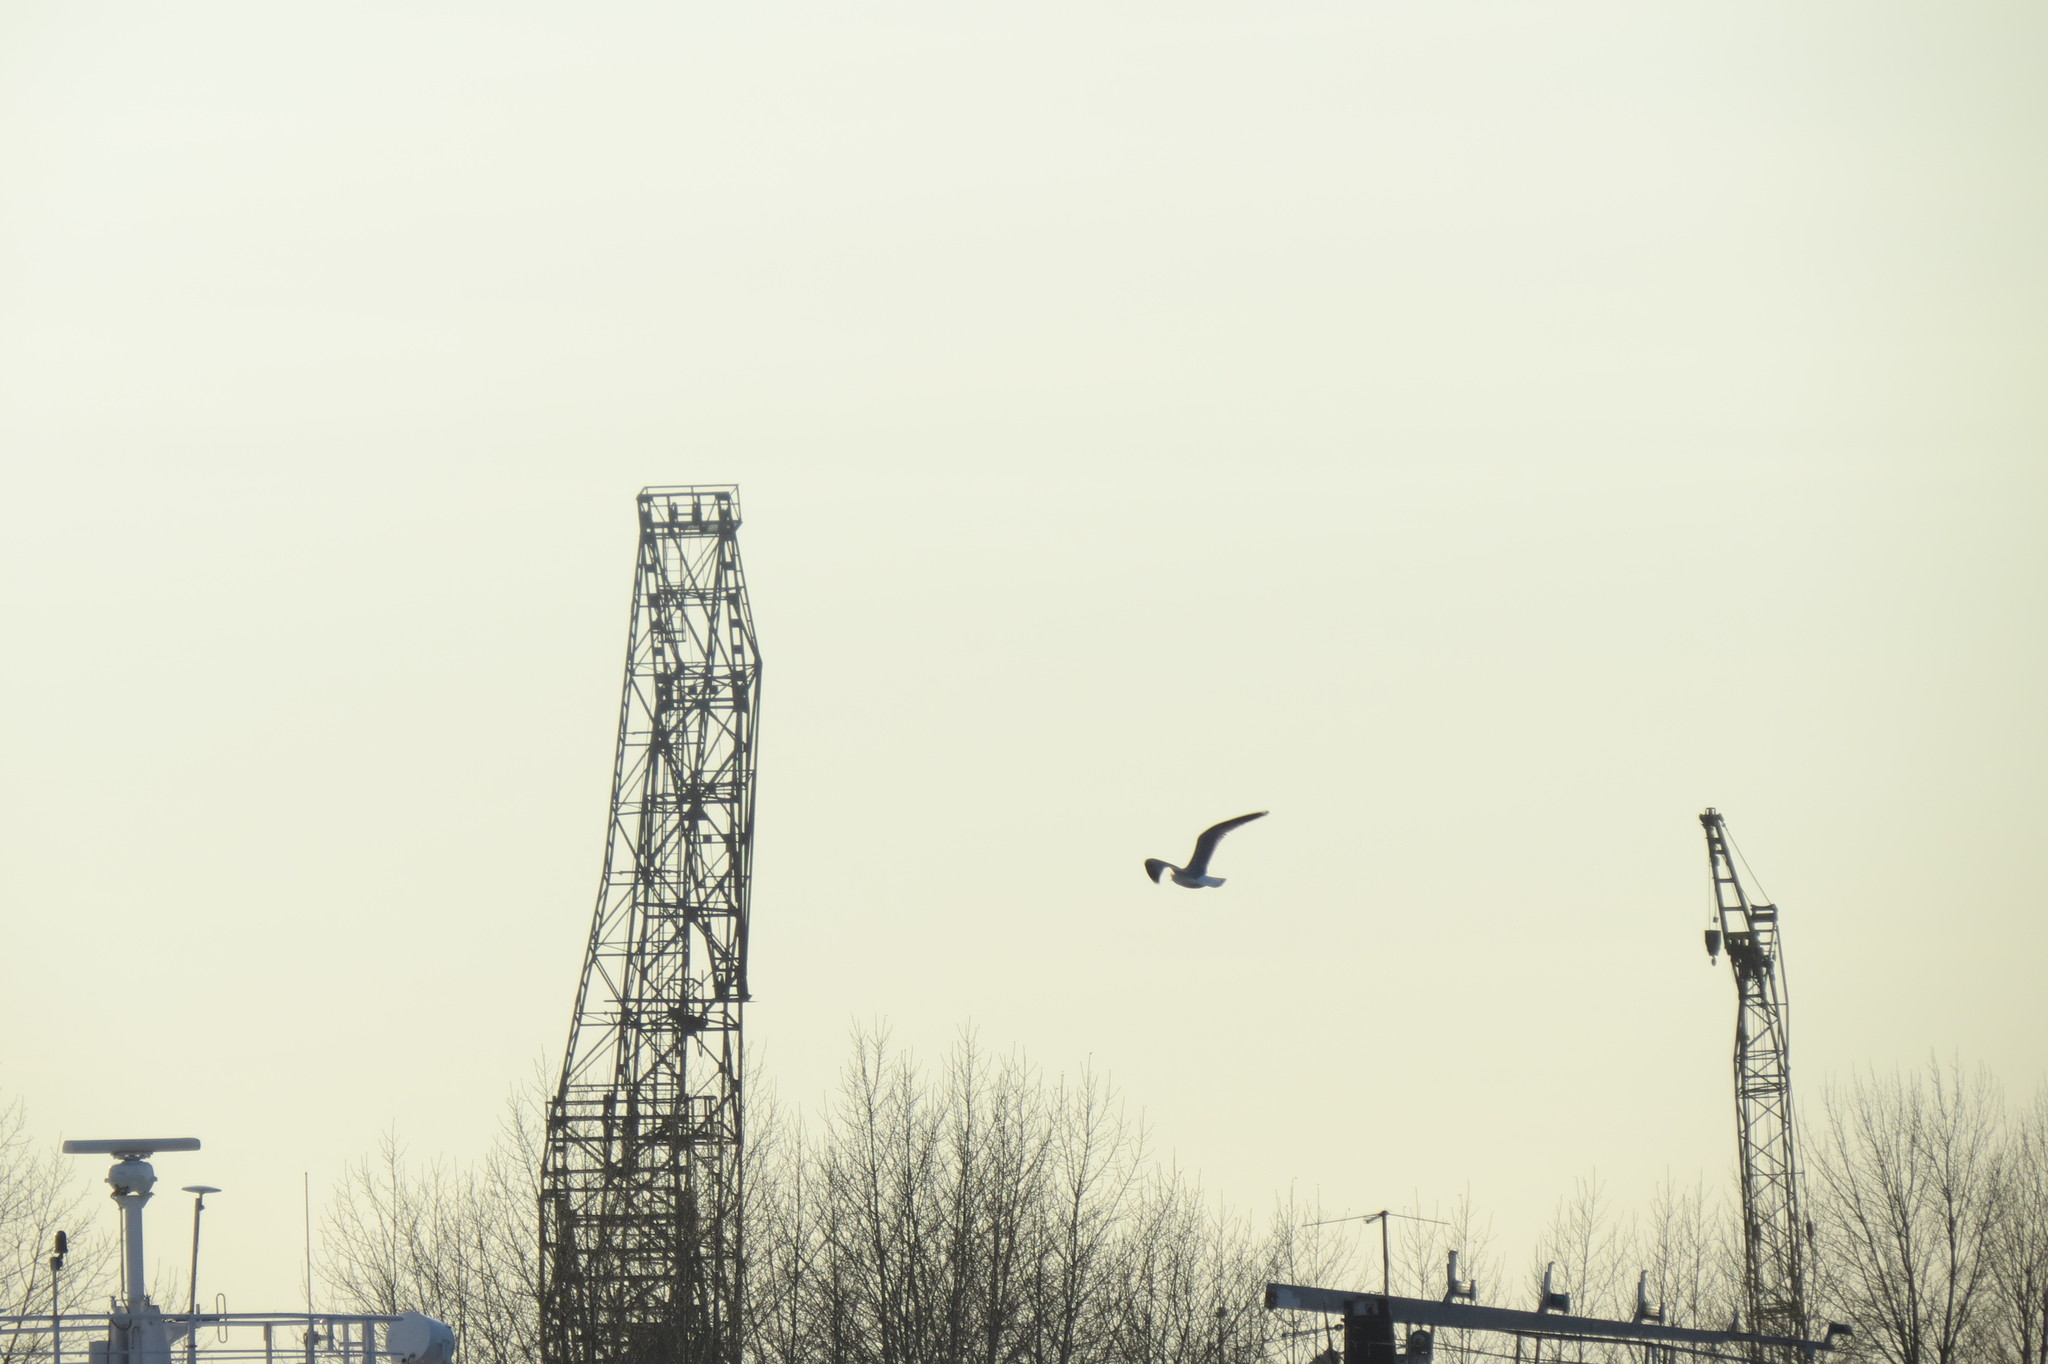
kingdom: Animalia
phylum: Chordata
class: Aves
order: Charadriiformes
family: Laridae
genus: Larus
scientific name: Larus canus
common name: Mew gull
